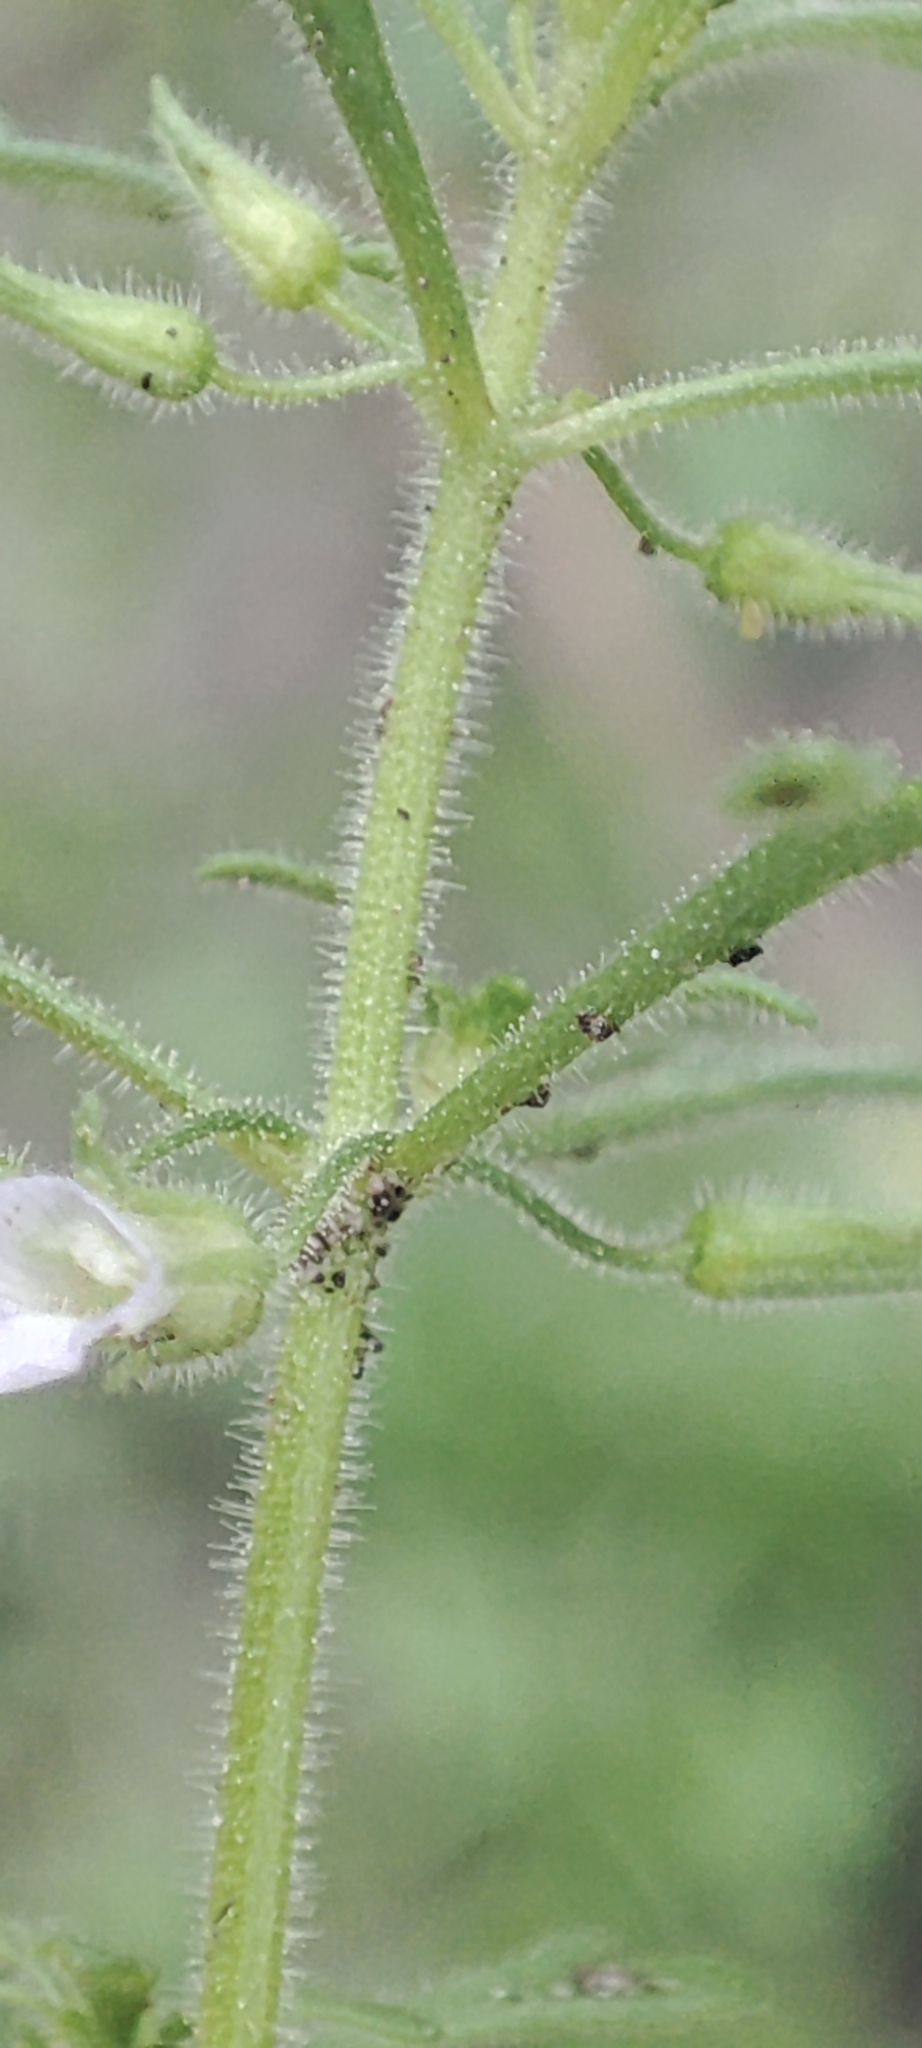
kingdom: Plantae
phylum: Tracheophyta
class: Magnoliopsida
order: Lamiales
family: Plantaginaceae
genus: Leucospora
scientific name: Leucospora multifida
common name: Narrow-leaf paleseed
